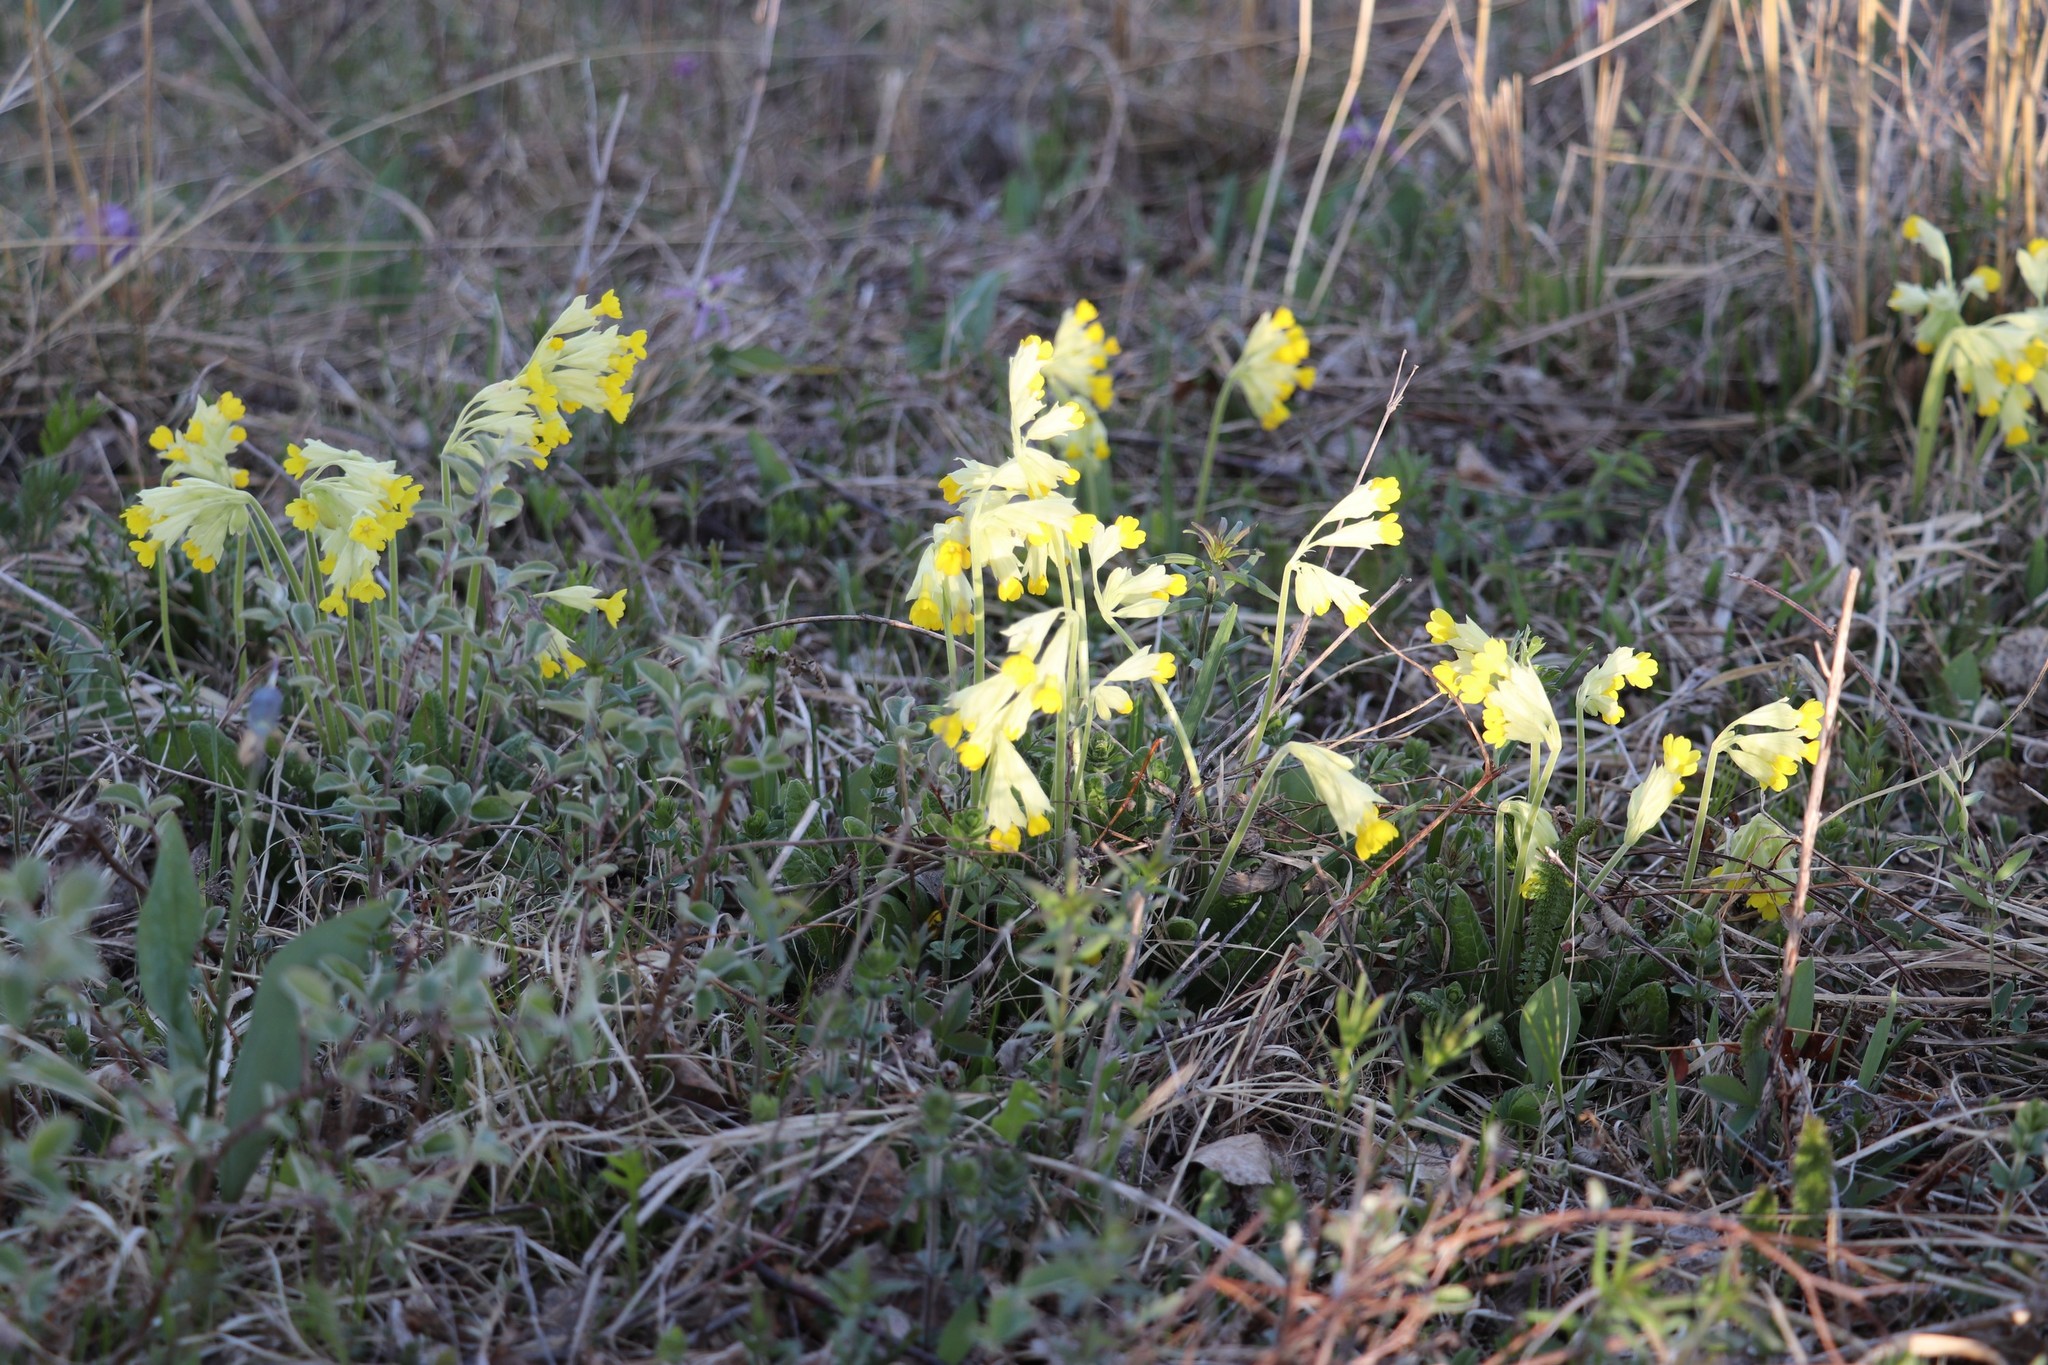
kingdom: Plantae
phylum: Tracheophyta
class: Magnoliopsida
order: Ericales
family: Primulaceae
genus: Primula
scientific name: Primula veris
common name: Cowslip
